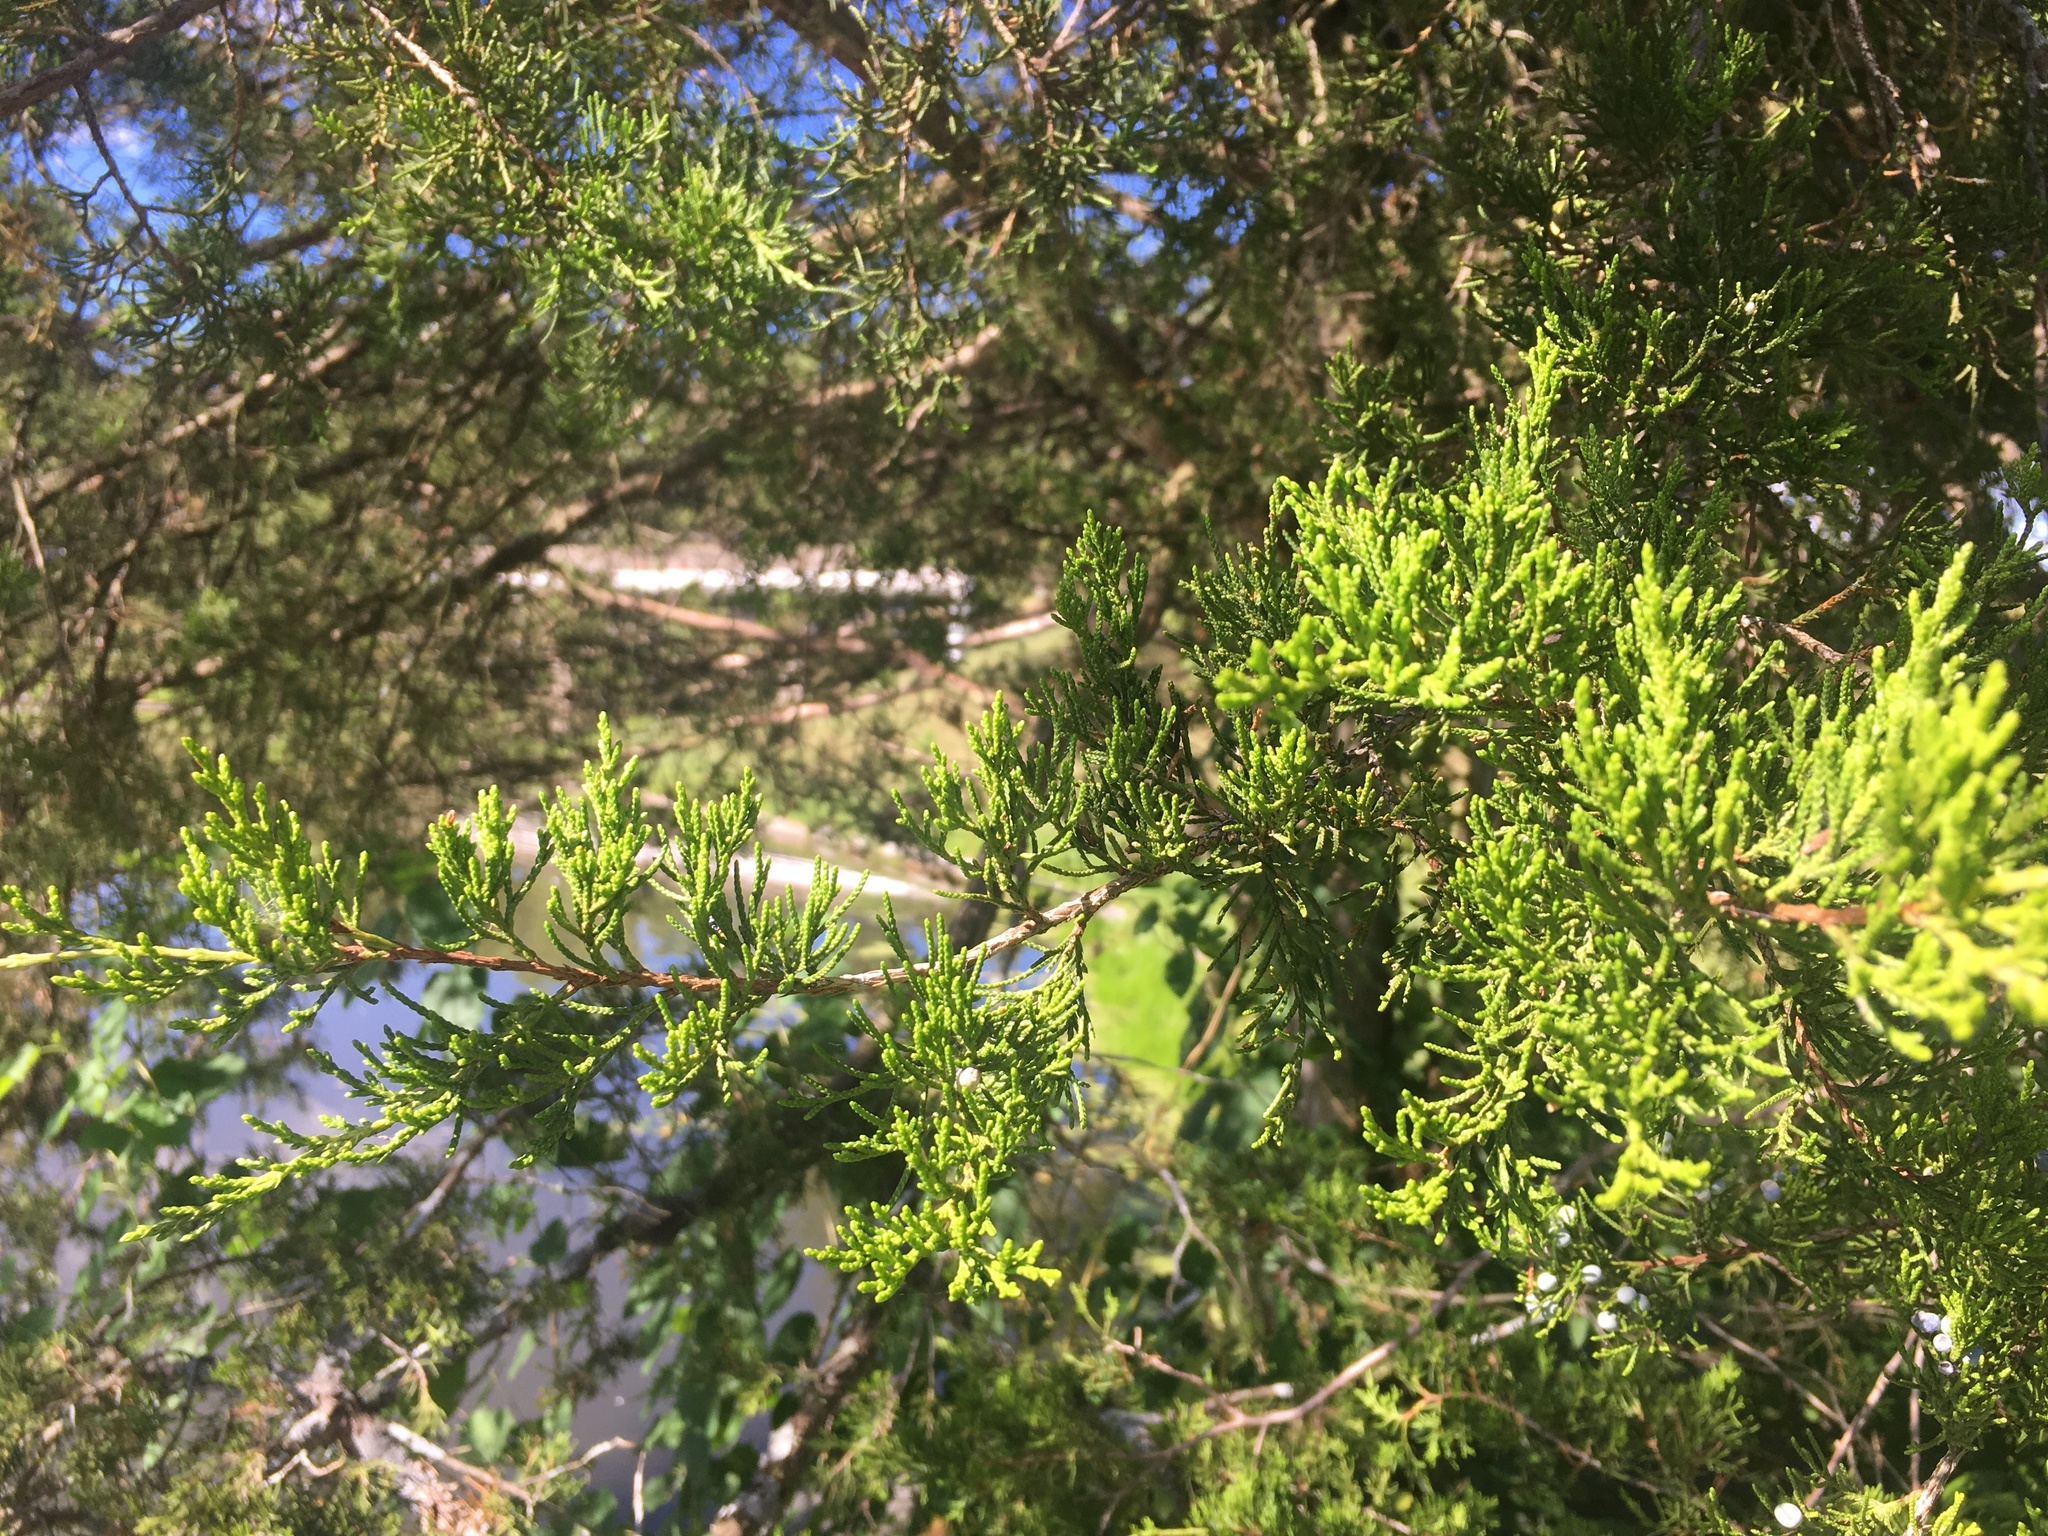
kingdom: Plantae
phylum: Tracheophyta
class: Pinopsida
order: Pinales
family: Cupressaceae
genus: Juniperus
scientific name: Juniperus virginiana
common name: Red juniper
